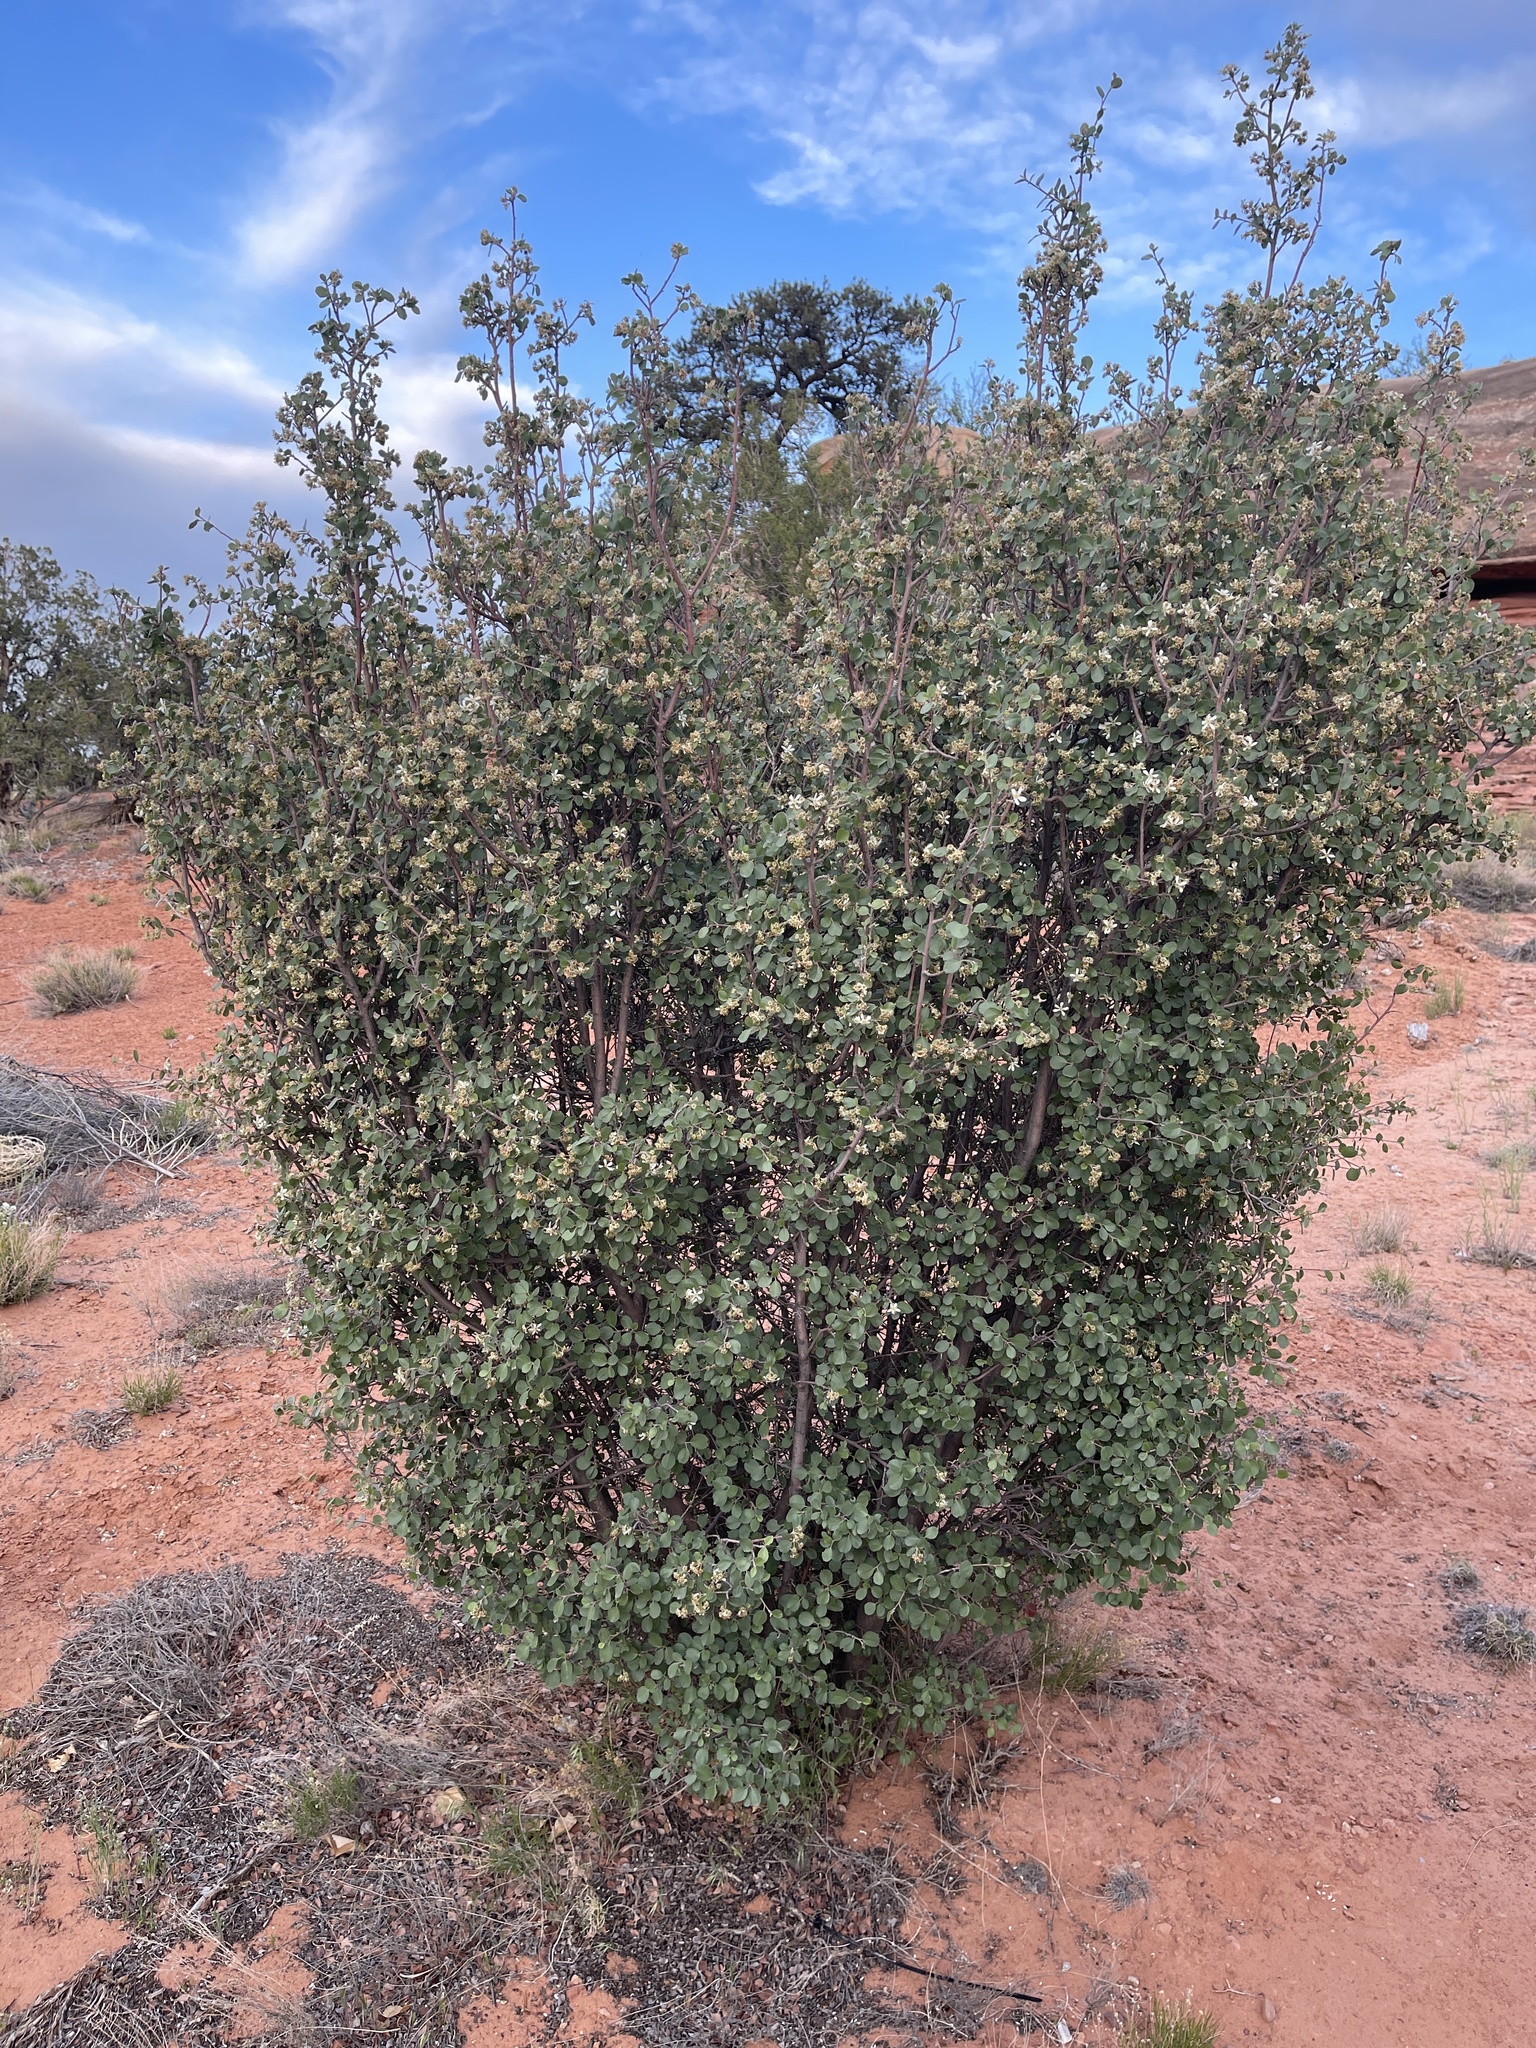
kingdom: Plantae
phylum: Tracheophyta
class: Magnoliopsida
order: Rosales
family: Rosaceae
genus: Amelanchier
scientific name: Amelanchier utahensis
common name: Utah serviceberry
